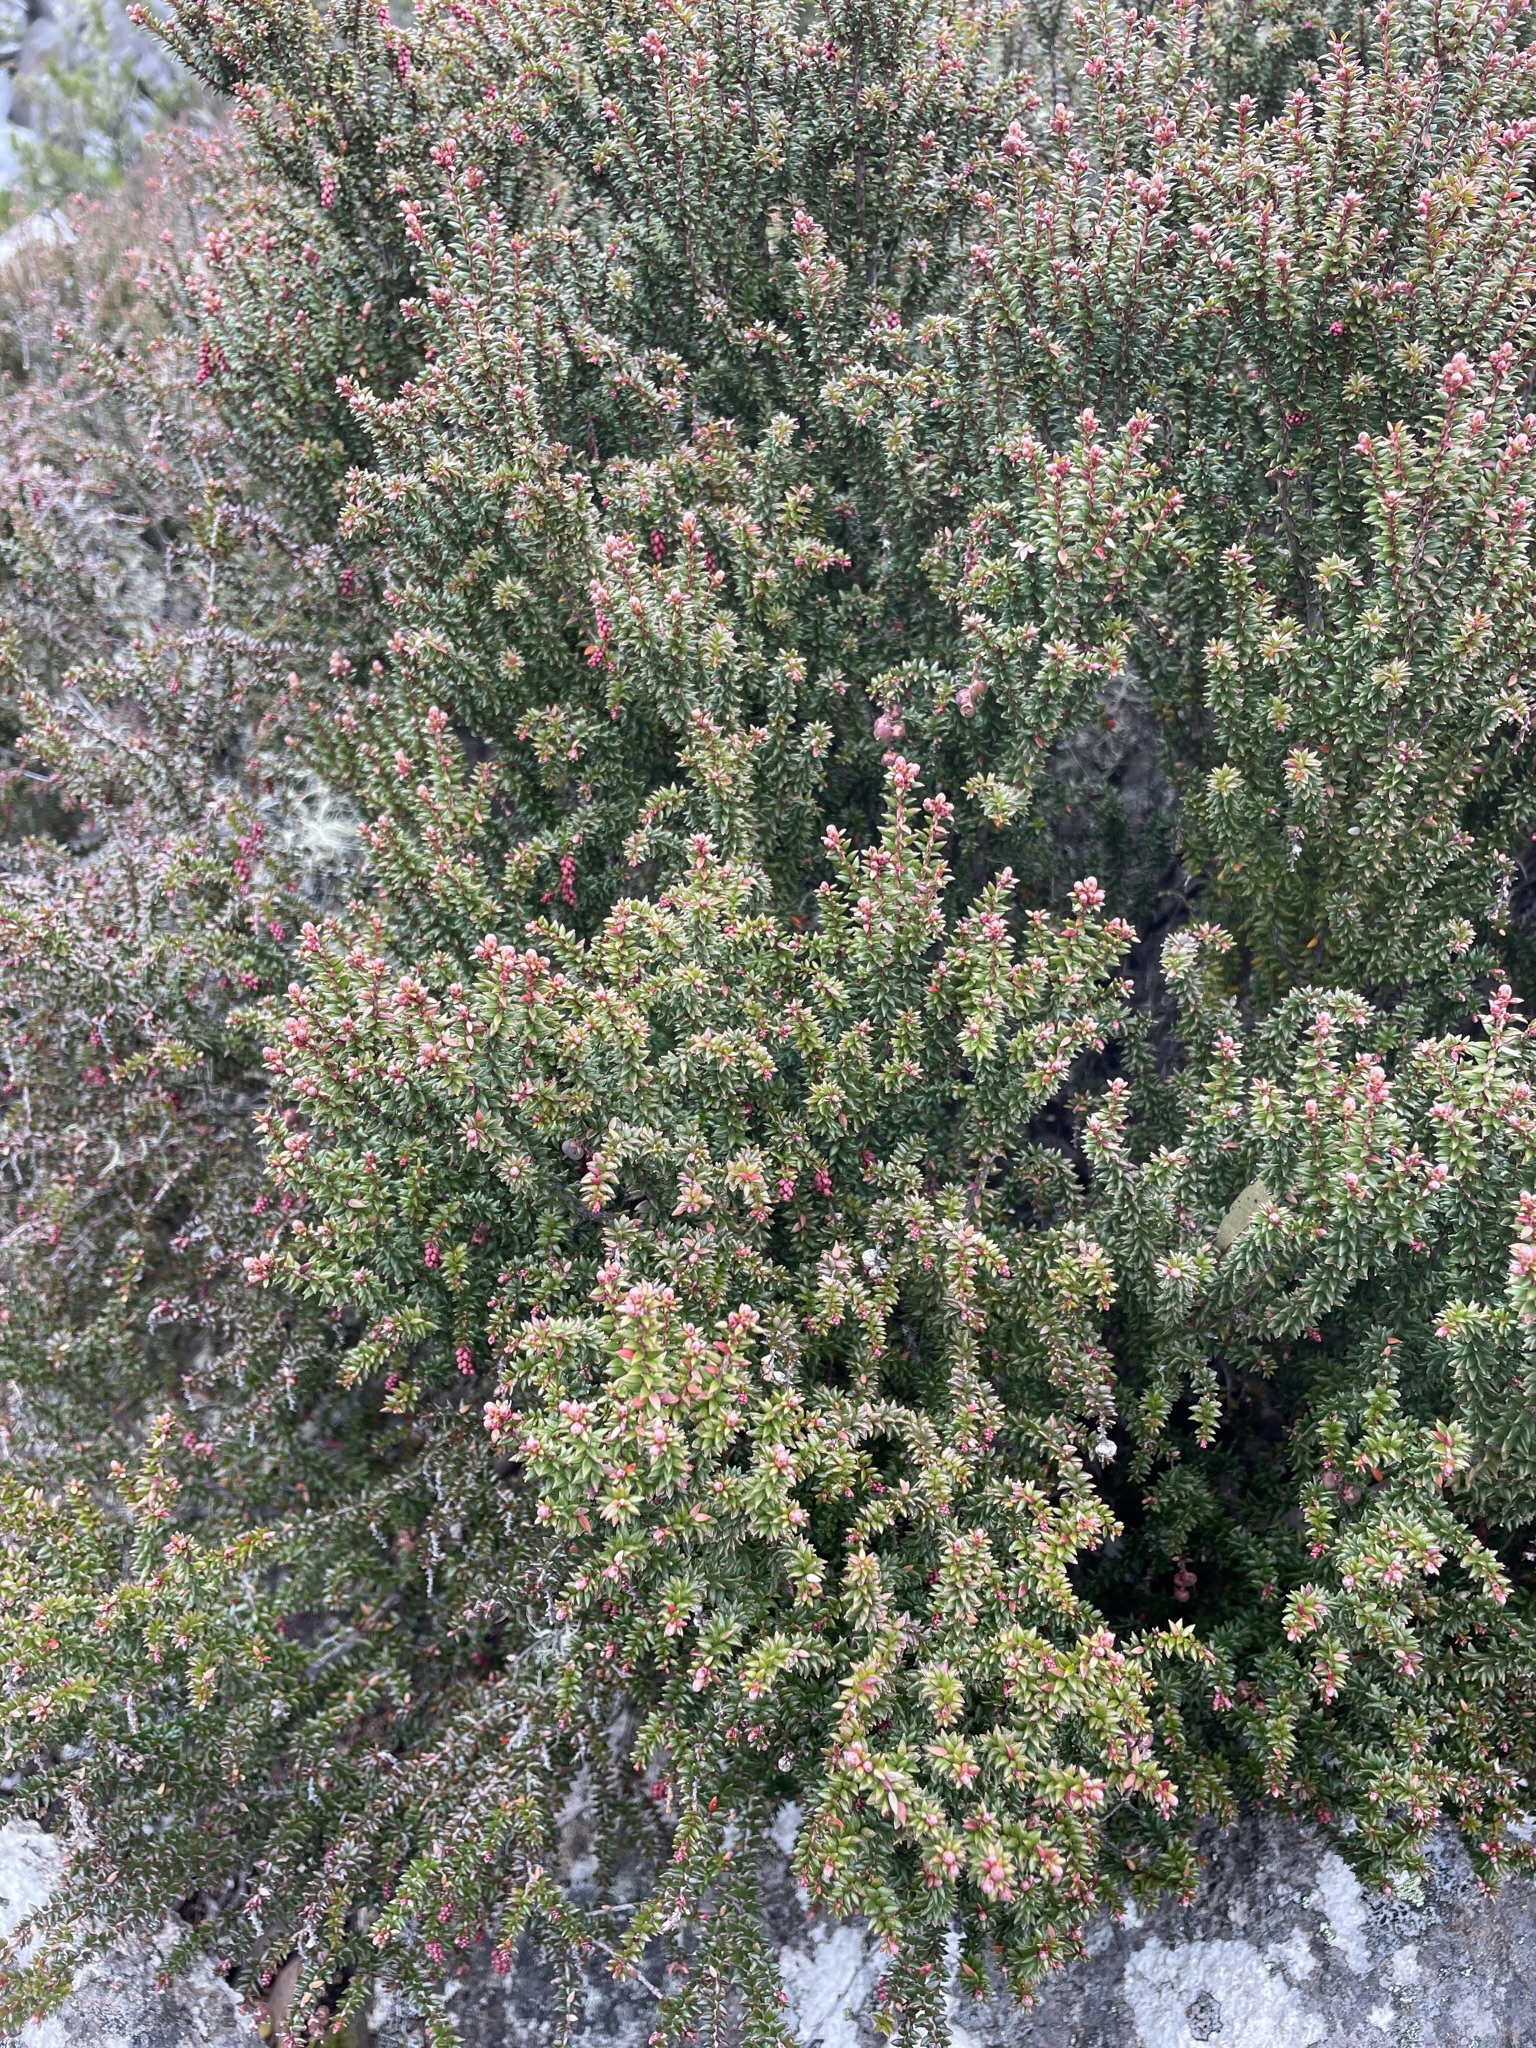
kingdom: Plantae
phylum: Tracheophyta
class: Magnoliopsida
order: Ericales
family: Ericaceae
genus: Trochocarpa
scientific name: Trochocarpa thymifolia
